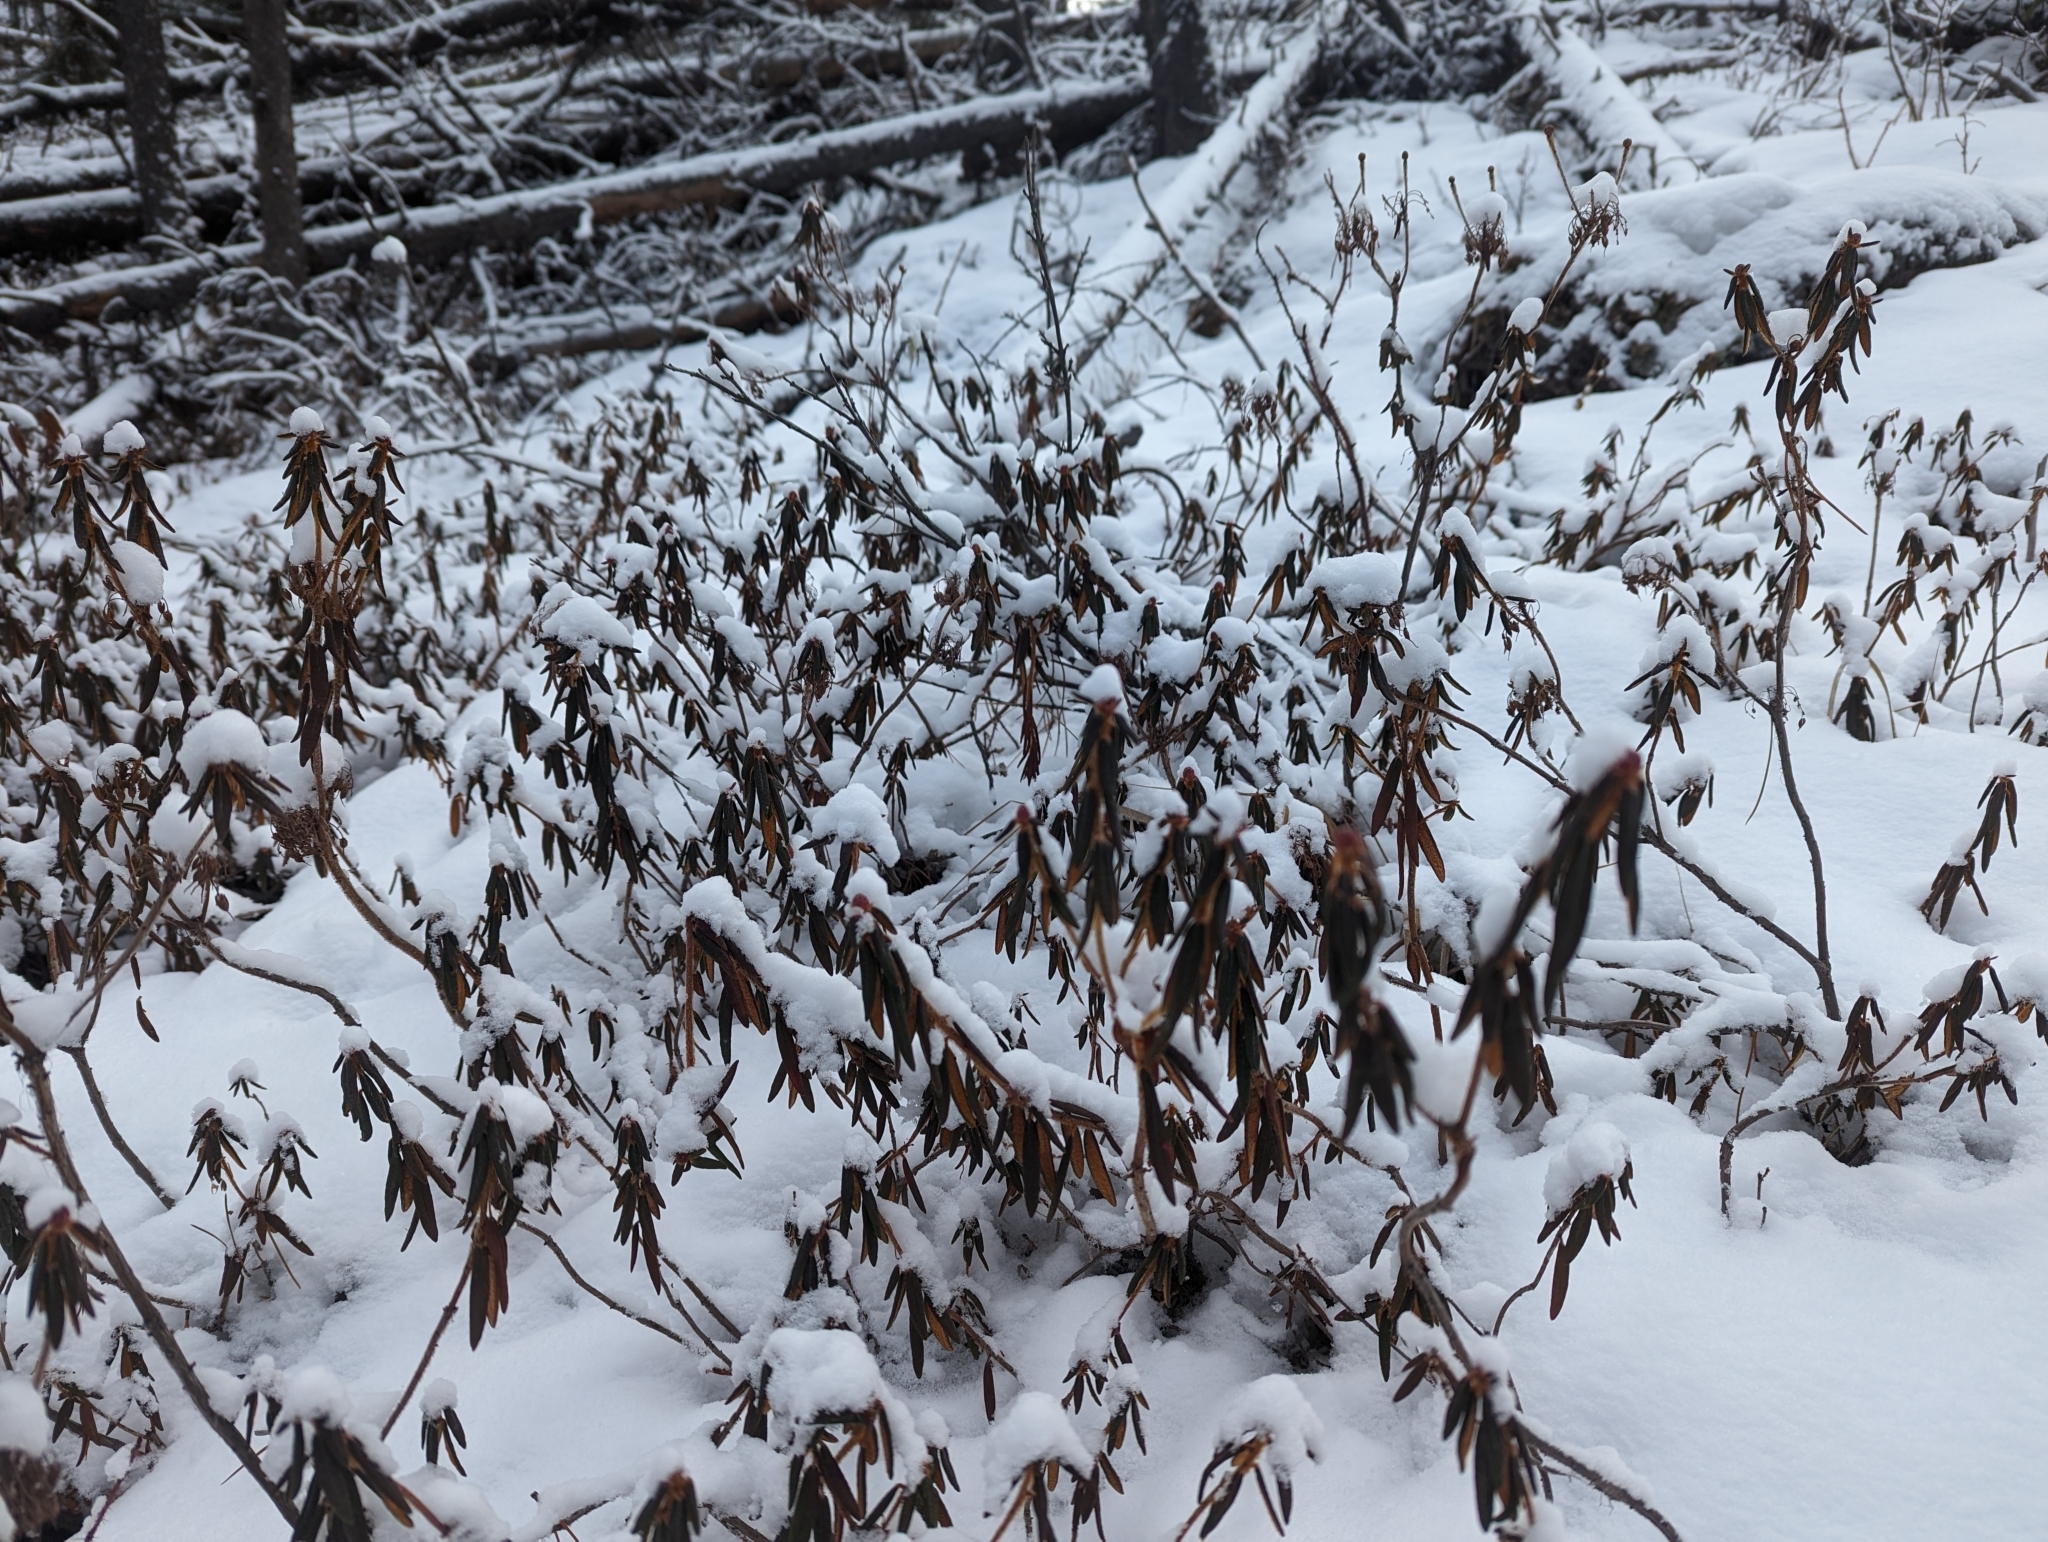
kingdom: Plantae
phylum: Tracheophyta
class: Magnoliopsida
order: Ericales
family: Ericaceae
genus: Rhododendron
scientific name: Rhododendron groenlandicum
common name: Bog labrador tea
